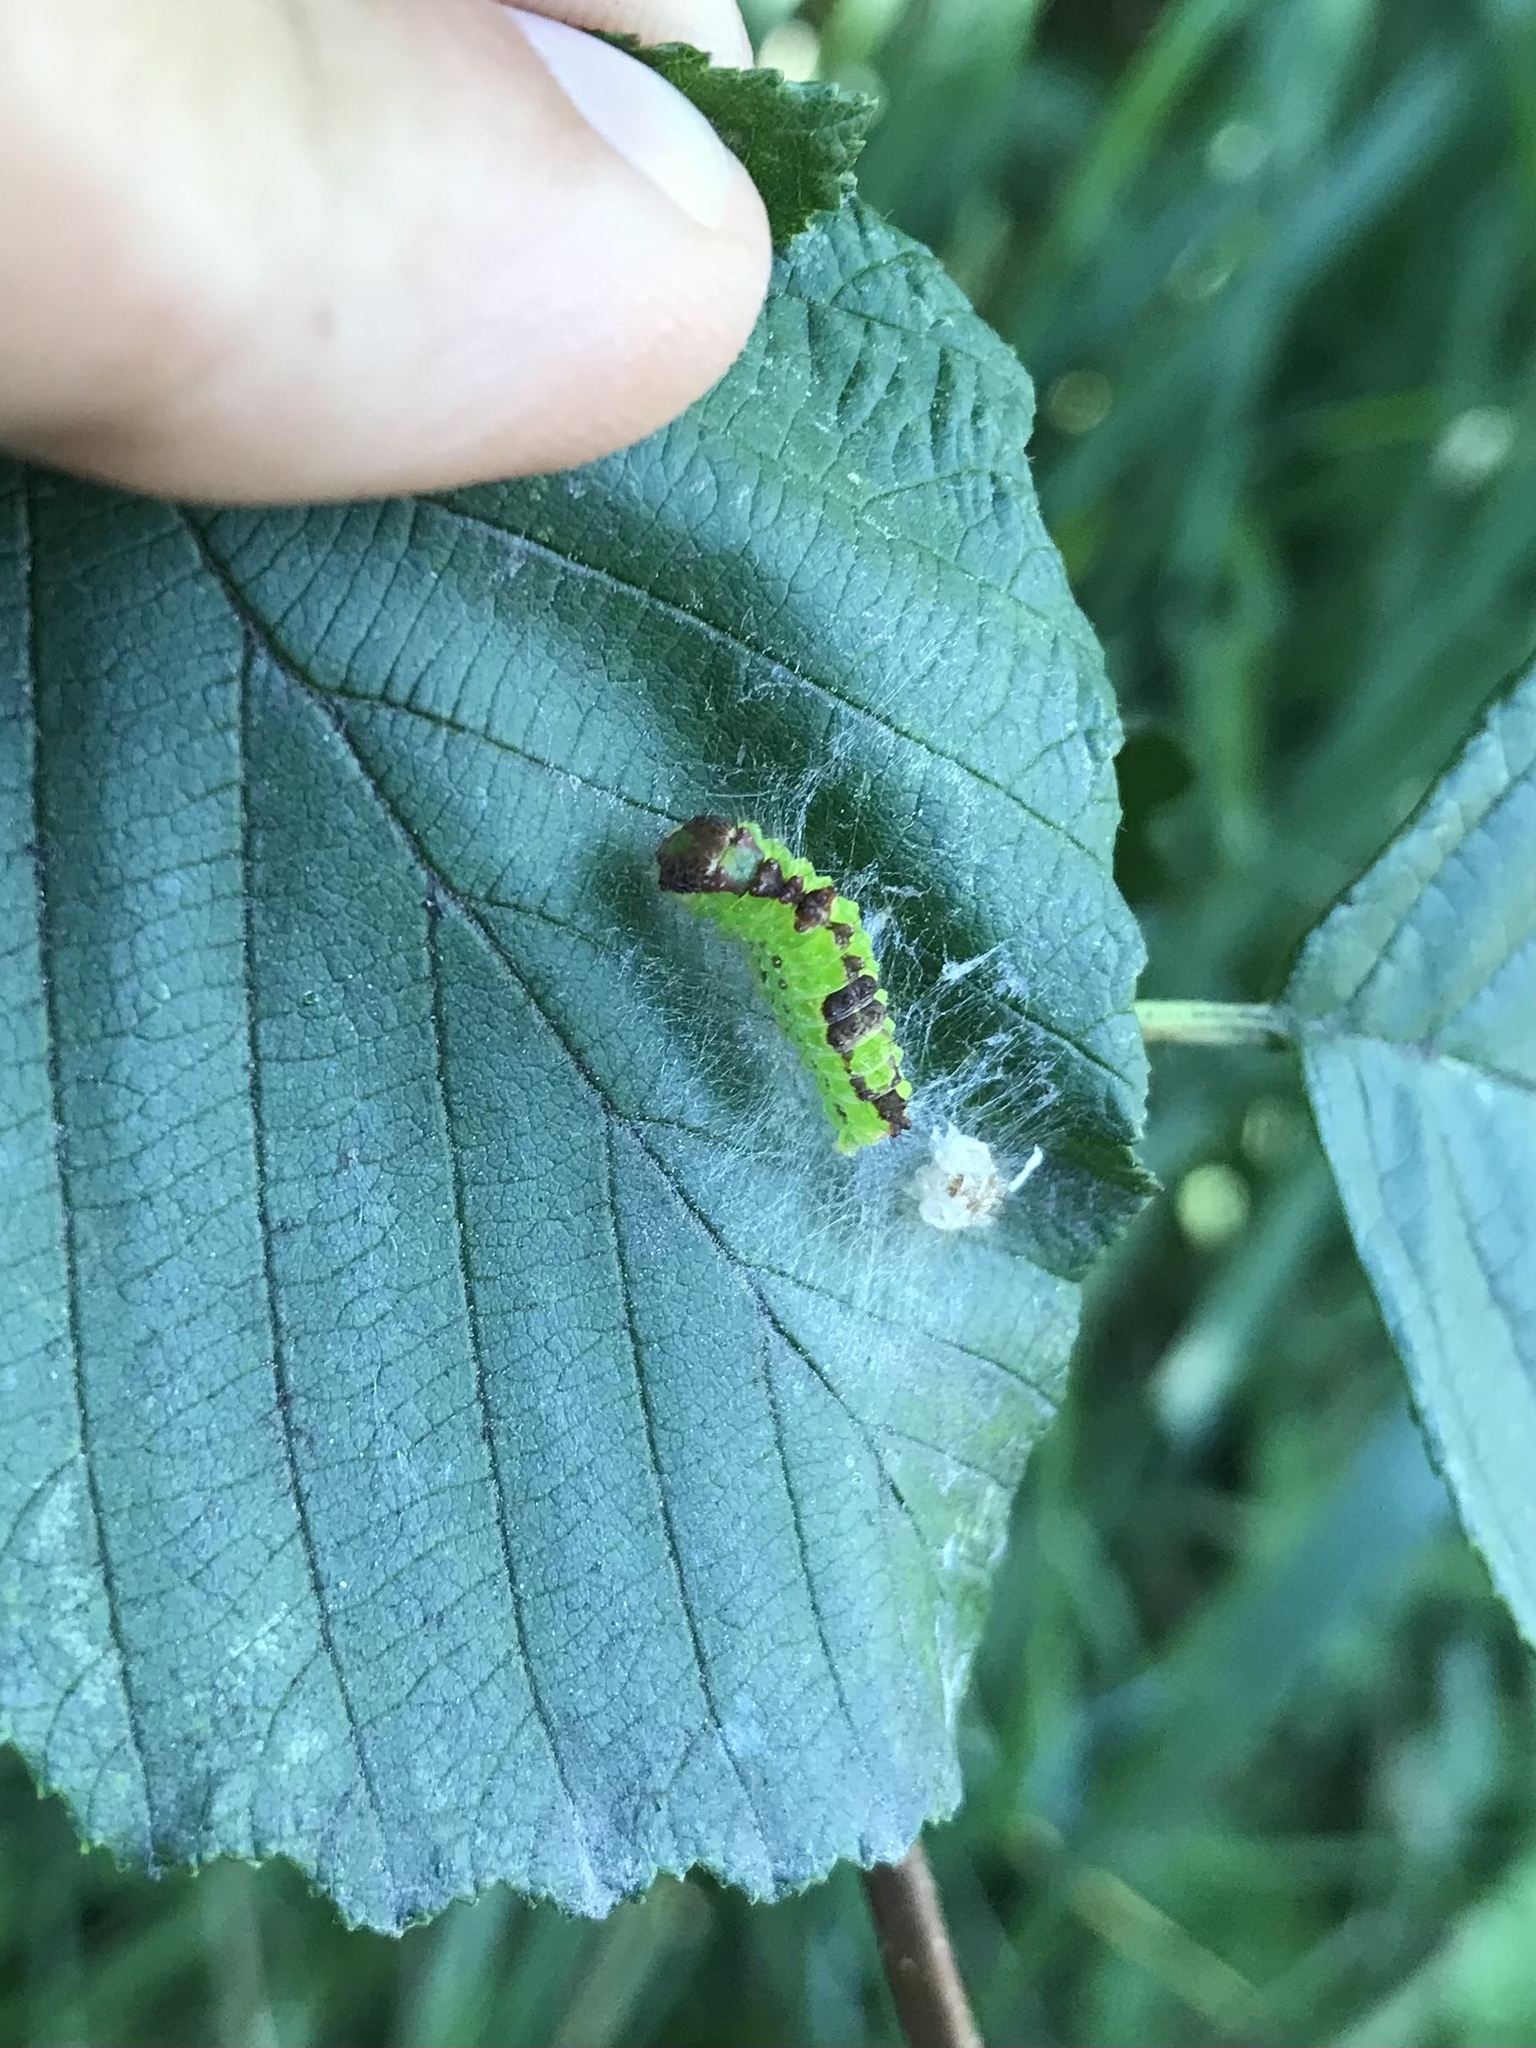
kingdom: Animalia
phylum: Arthropoda
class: Insecta
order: Lepidoptera
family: Noctuidae
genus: Acronicta
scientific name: Acronicta grisea
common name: Gray dagger
